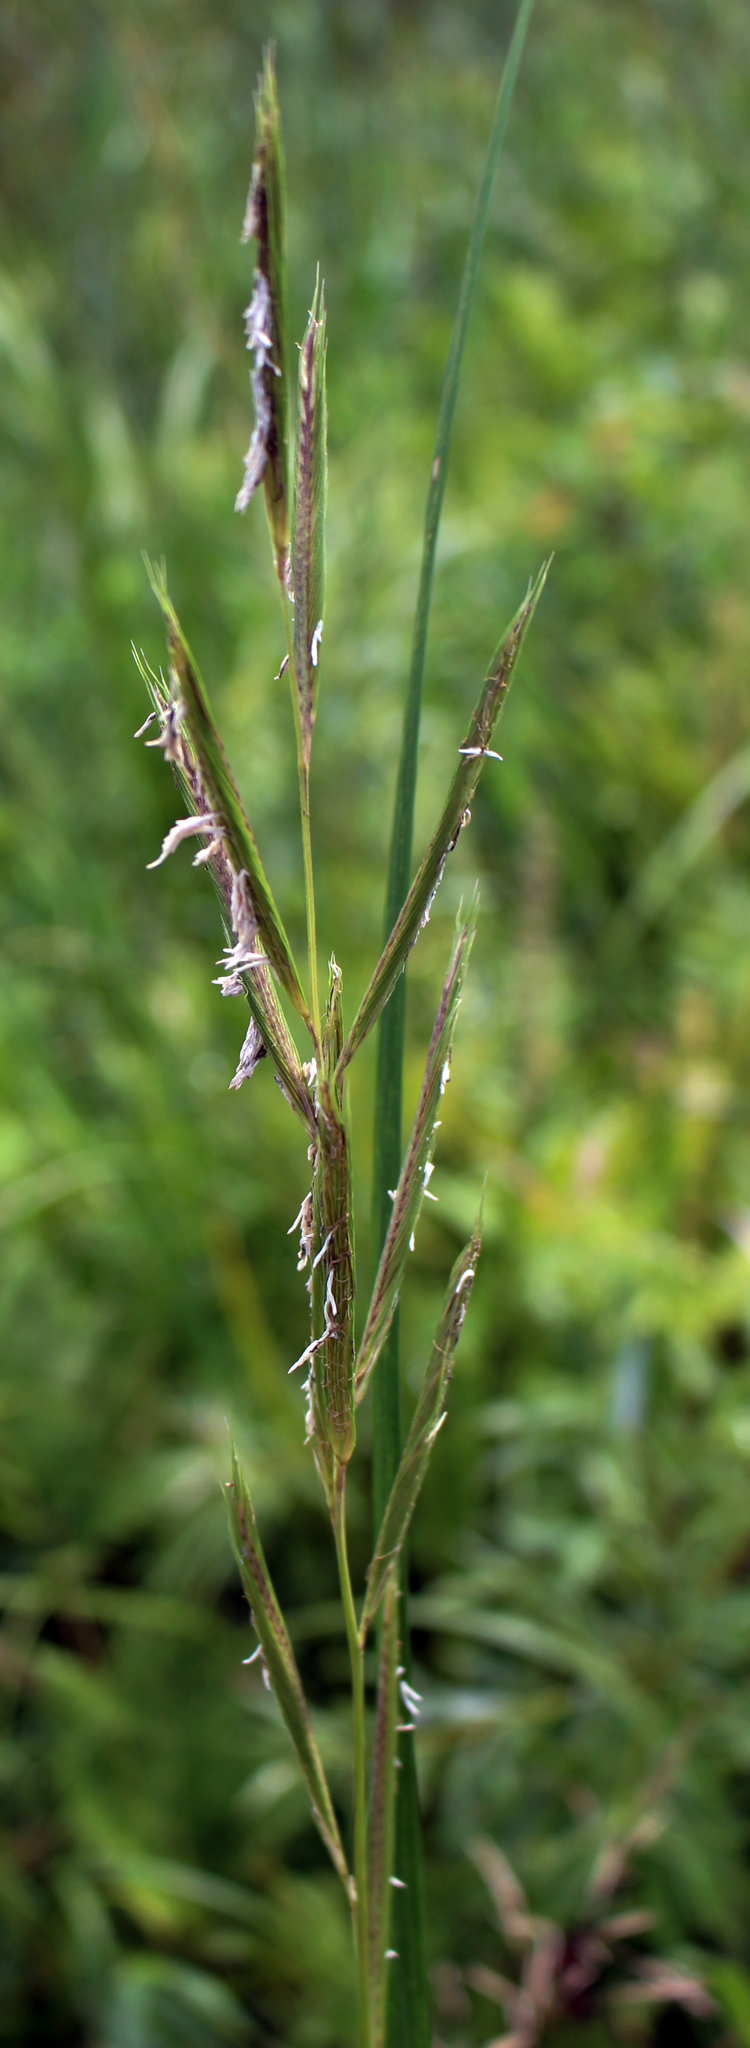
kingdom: Plantae
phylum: Tracheophyta
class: Liliopsida
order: Poales
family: Poaceae
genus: Sporobolus
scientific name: Sporobolus michauxianus
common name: Freshwater cordgrass
